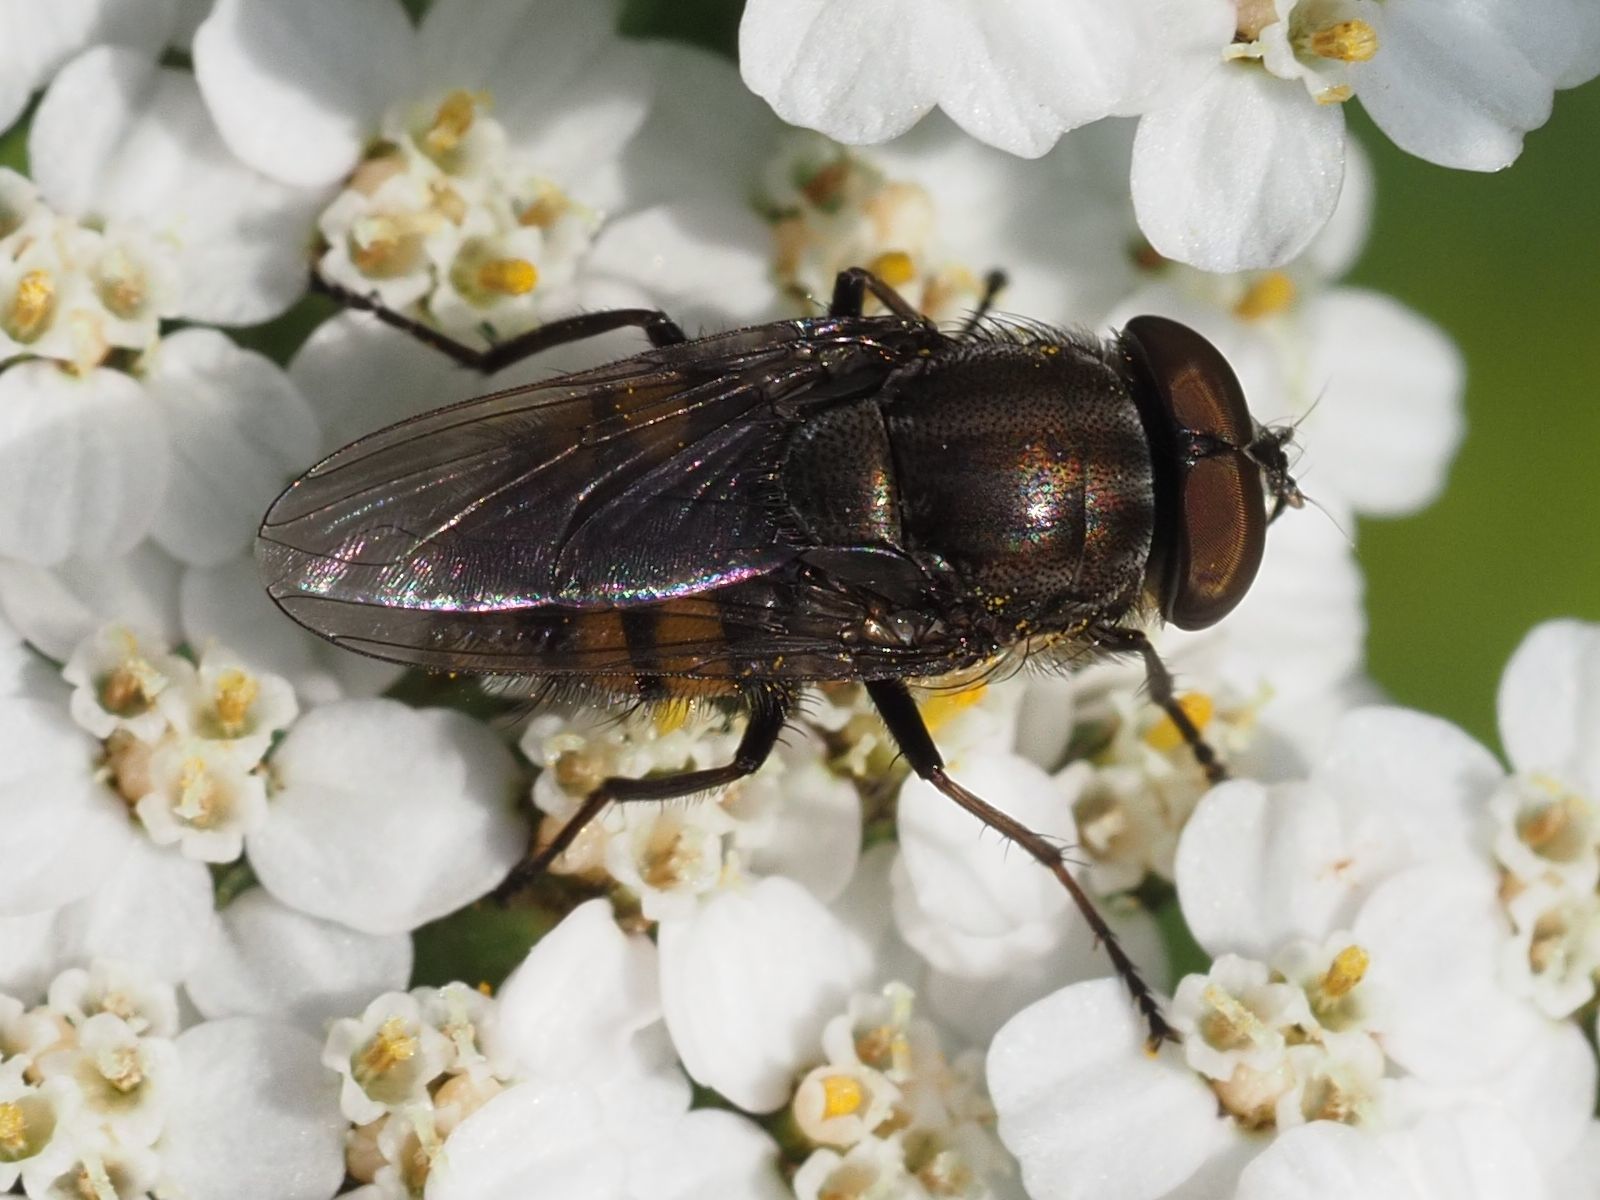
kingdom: Animalia
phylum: Arthropoda
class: Insecta
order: Diptera
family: Calliphoridae
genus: Stomorhina
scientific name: Stomorhina lunata
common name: Locust blowfly
